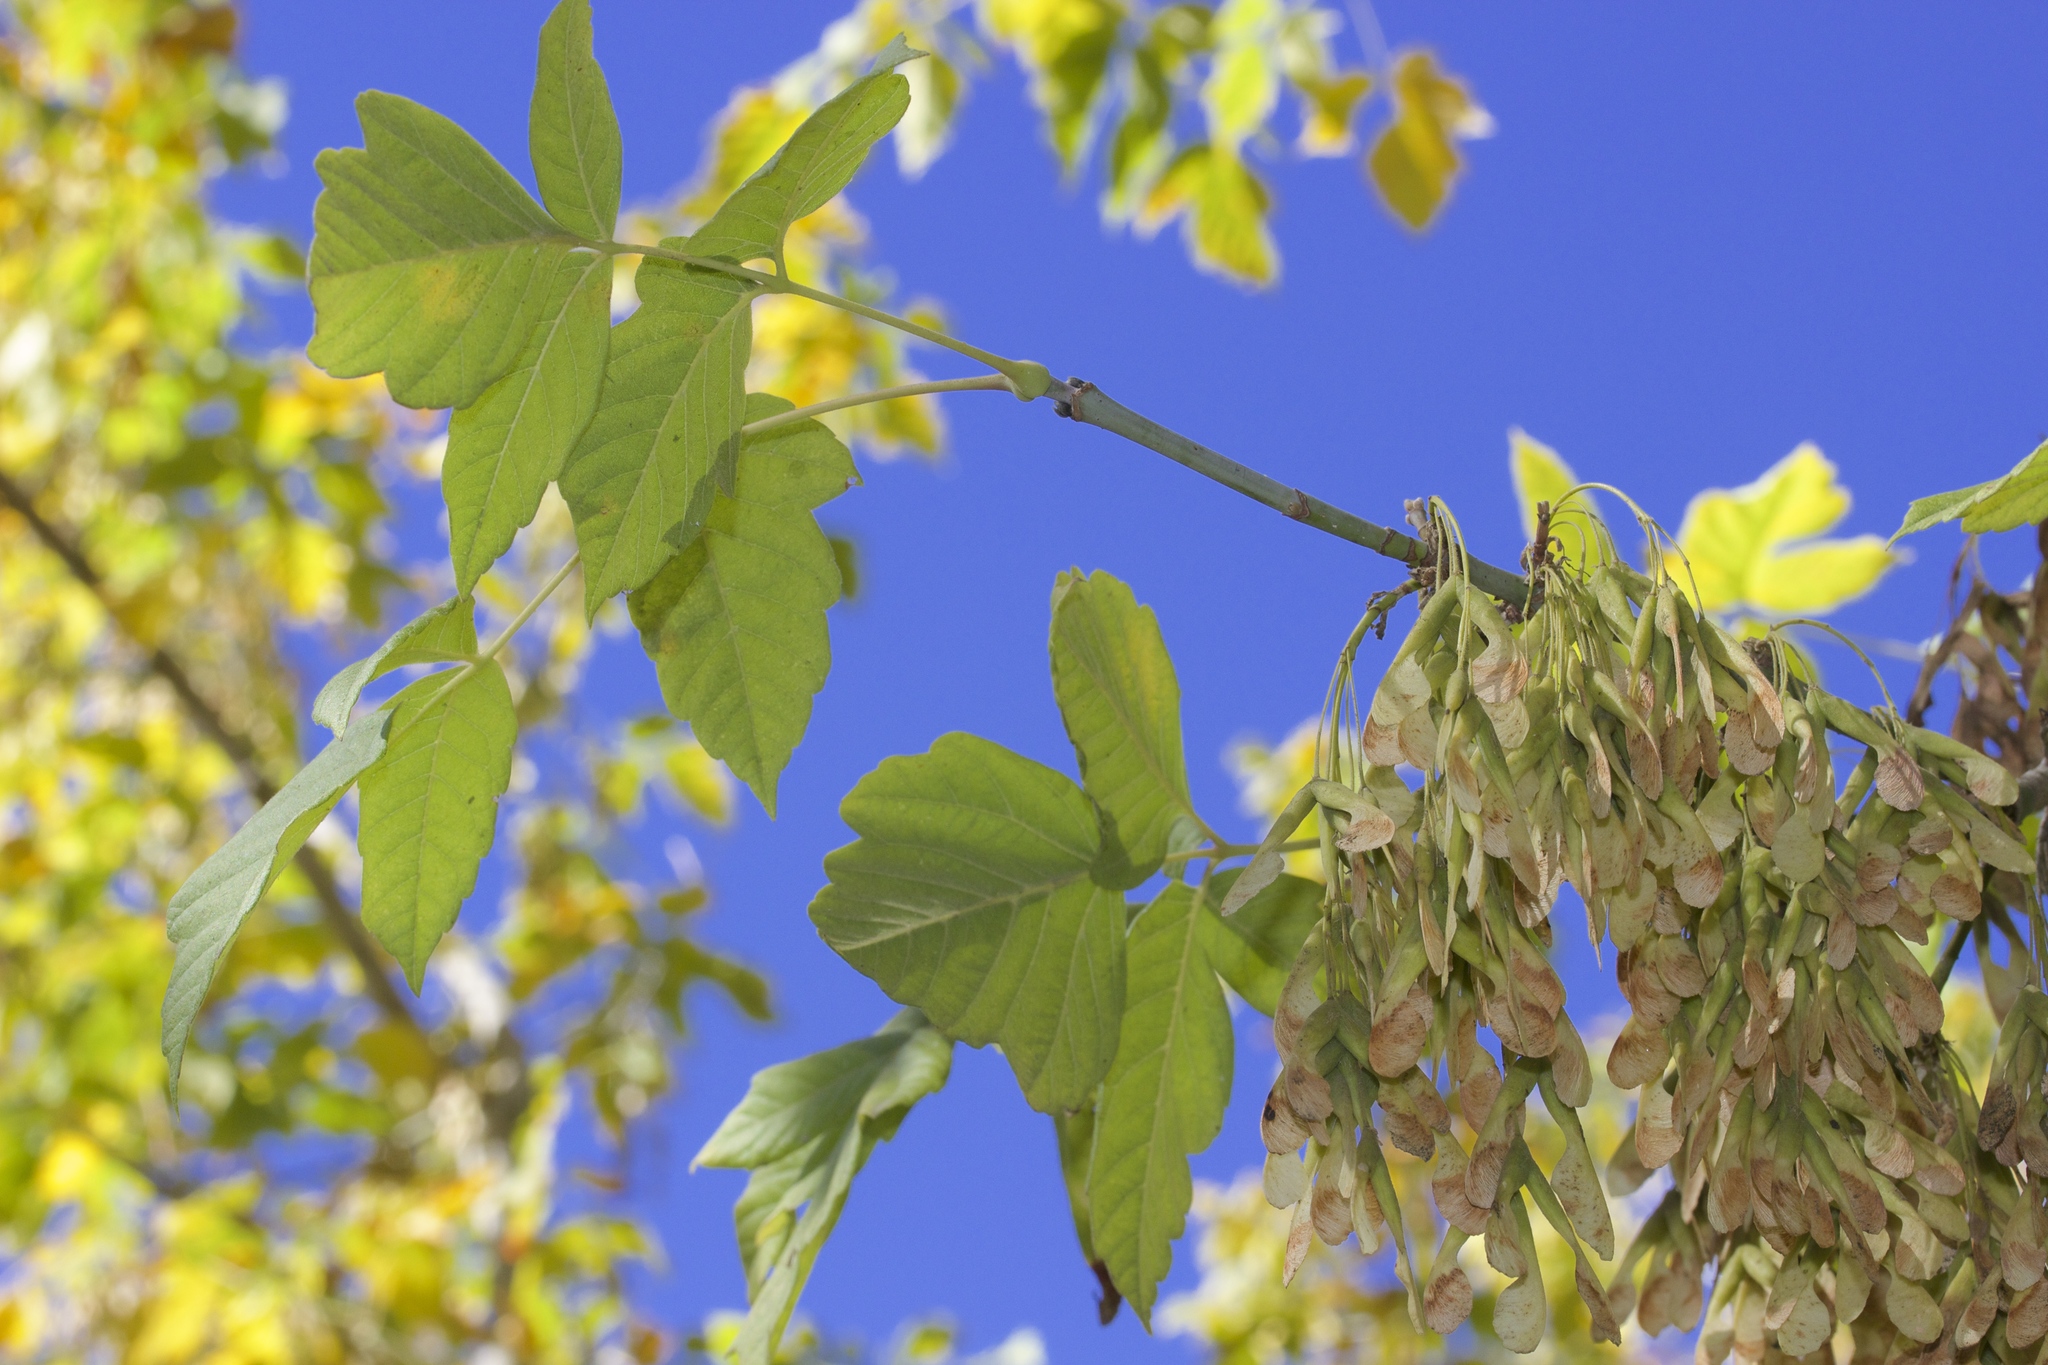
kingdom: Plantae
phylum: Tracheophyta
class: Magnoliopsida
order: Sapindales
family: Sapindaceae
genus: Acer
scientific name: Acer negundo
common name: Ashleaf maple
